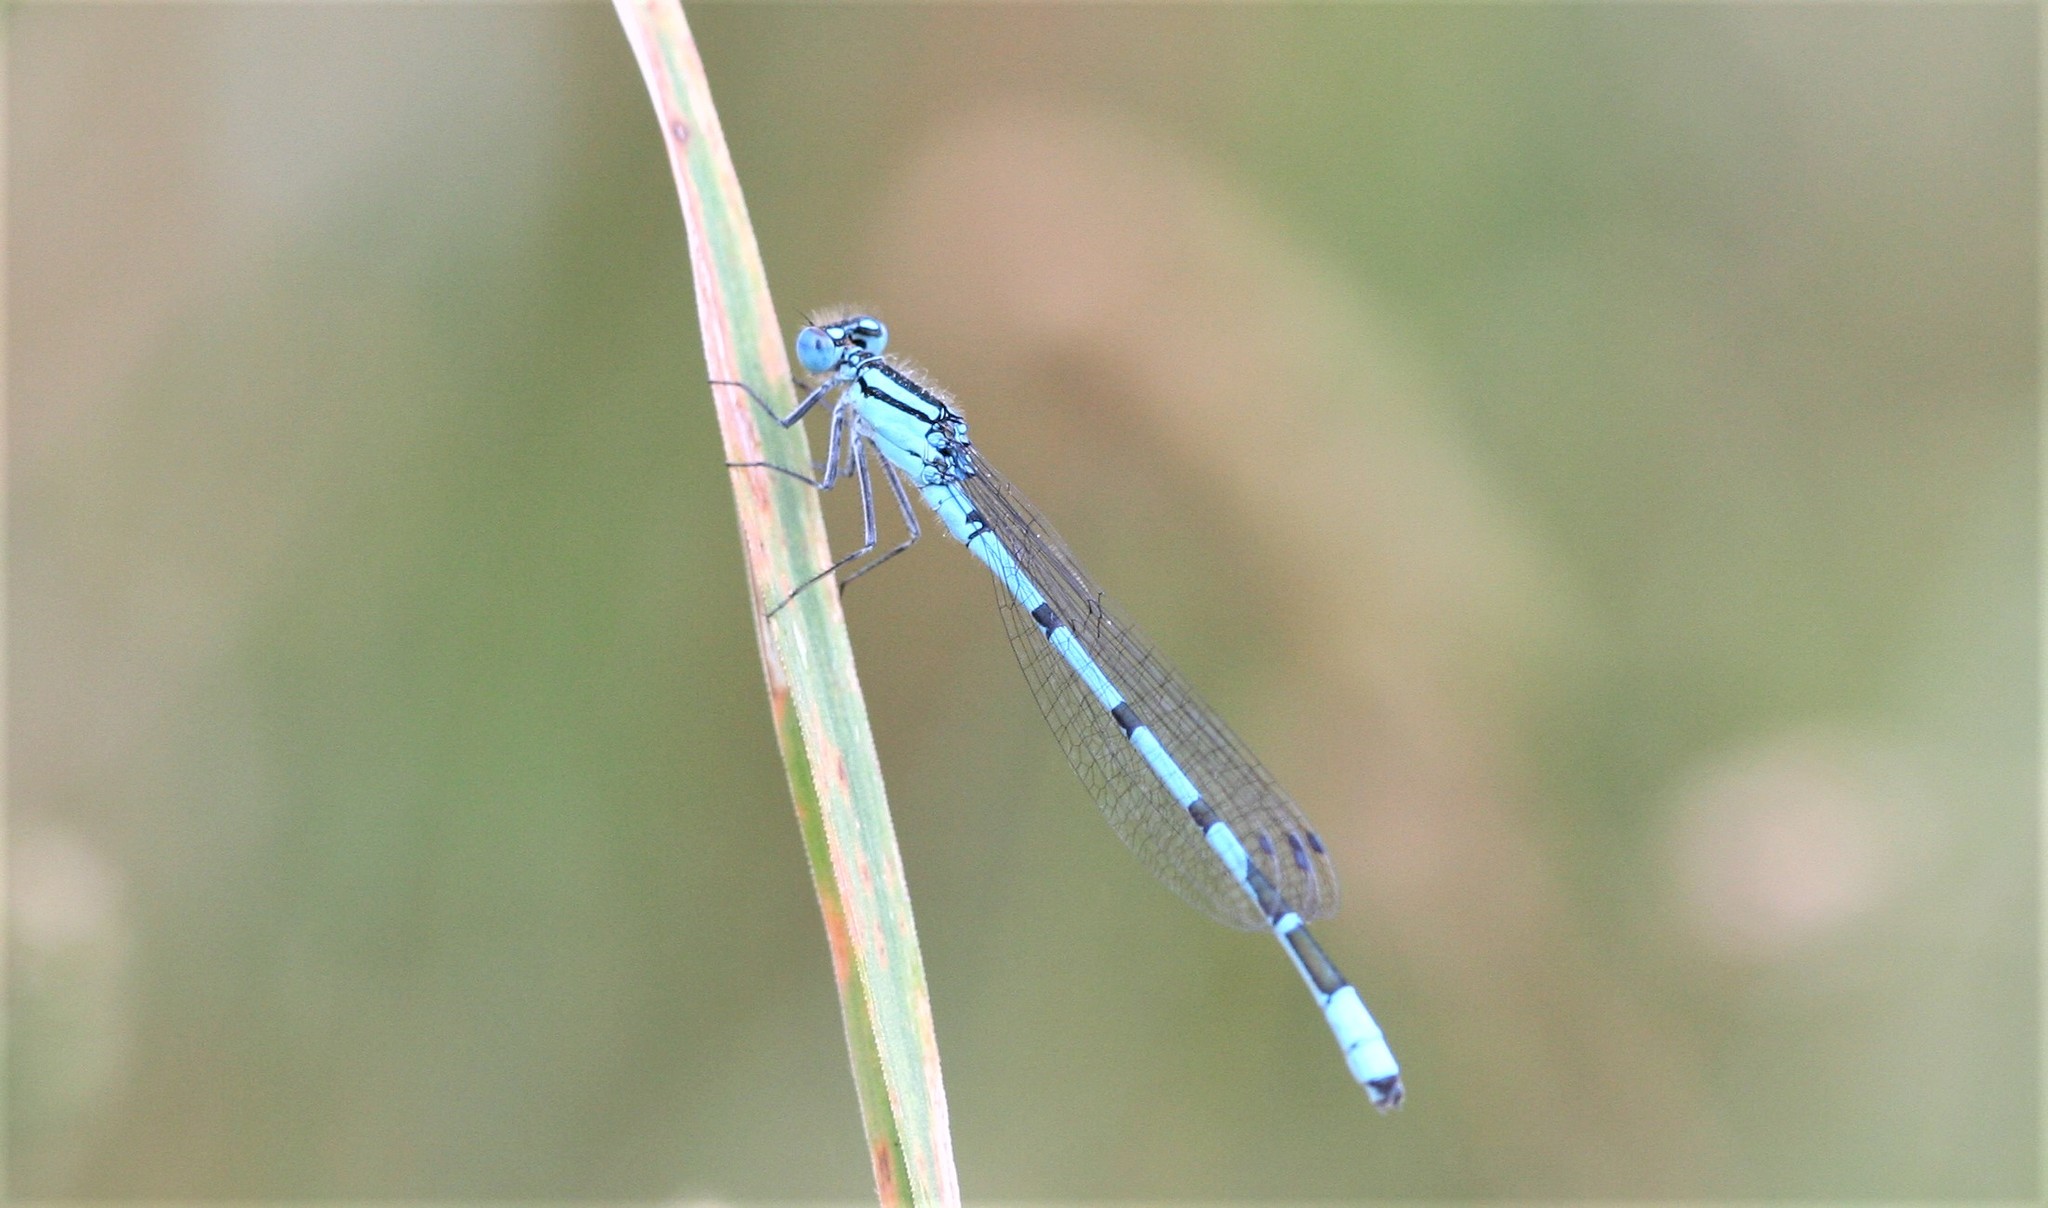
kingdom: Animalia
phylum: Arthropoda
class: Insecta
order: Odonata
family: Coenagrionidae
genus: Enallagma
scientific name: Enallagma cyathigerum
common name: Common blue damselfly
